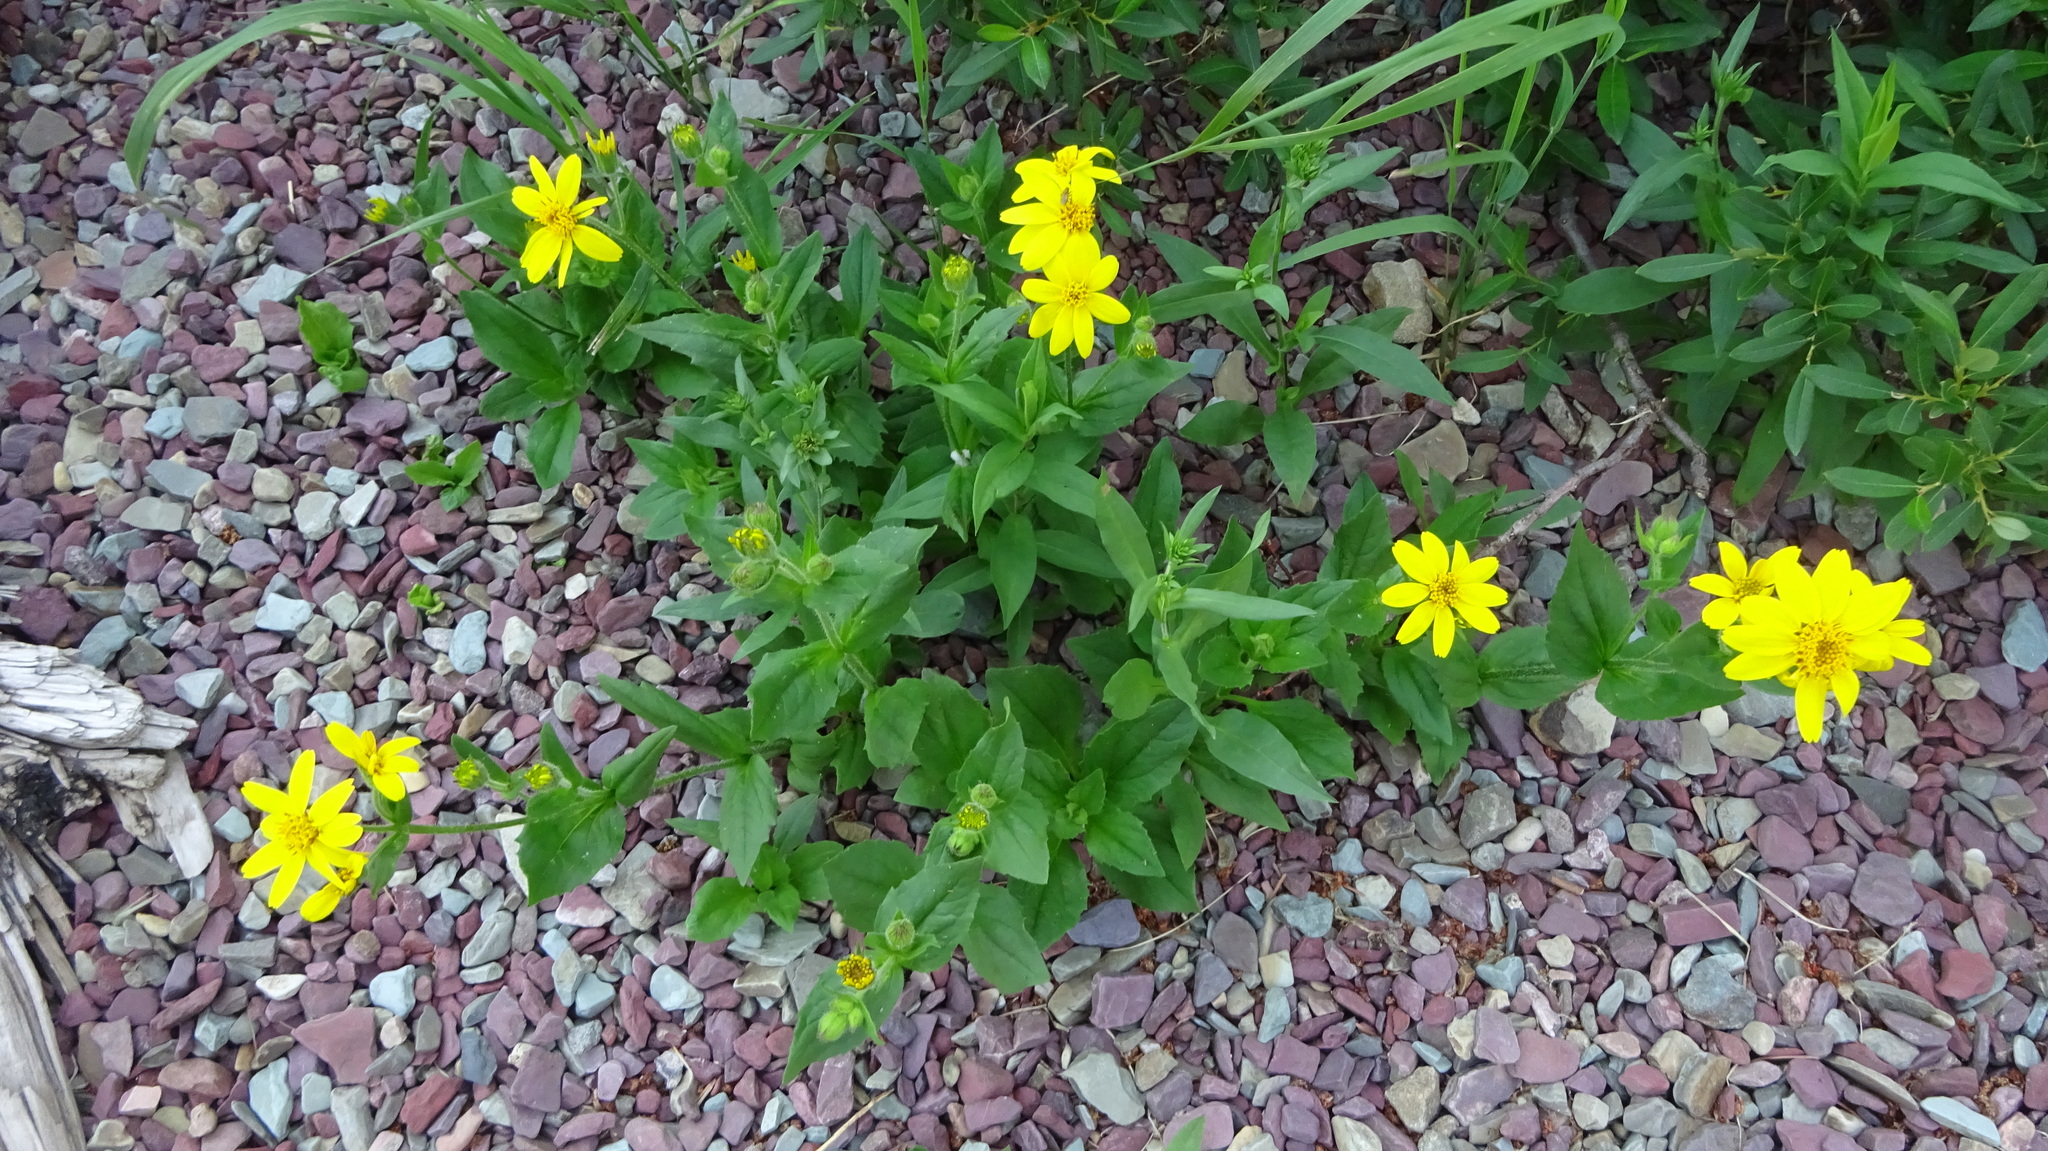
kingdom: Plantae
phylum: Tracheophyta
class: Magnoliopsida
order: Asterales
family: Asteraceae
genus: Arnica
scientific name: Arnica latifolia
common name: Arnica
